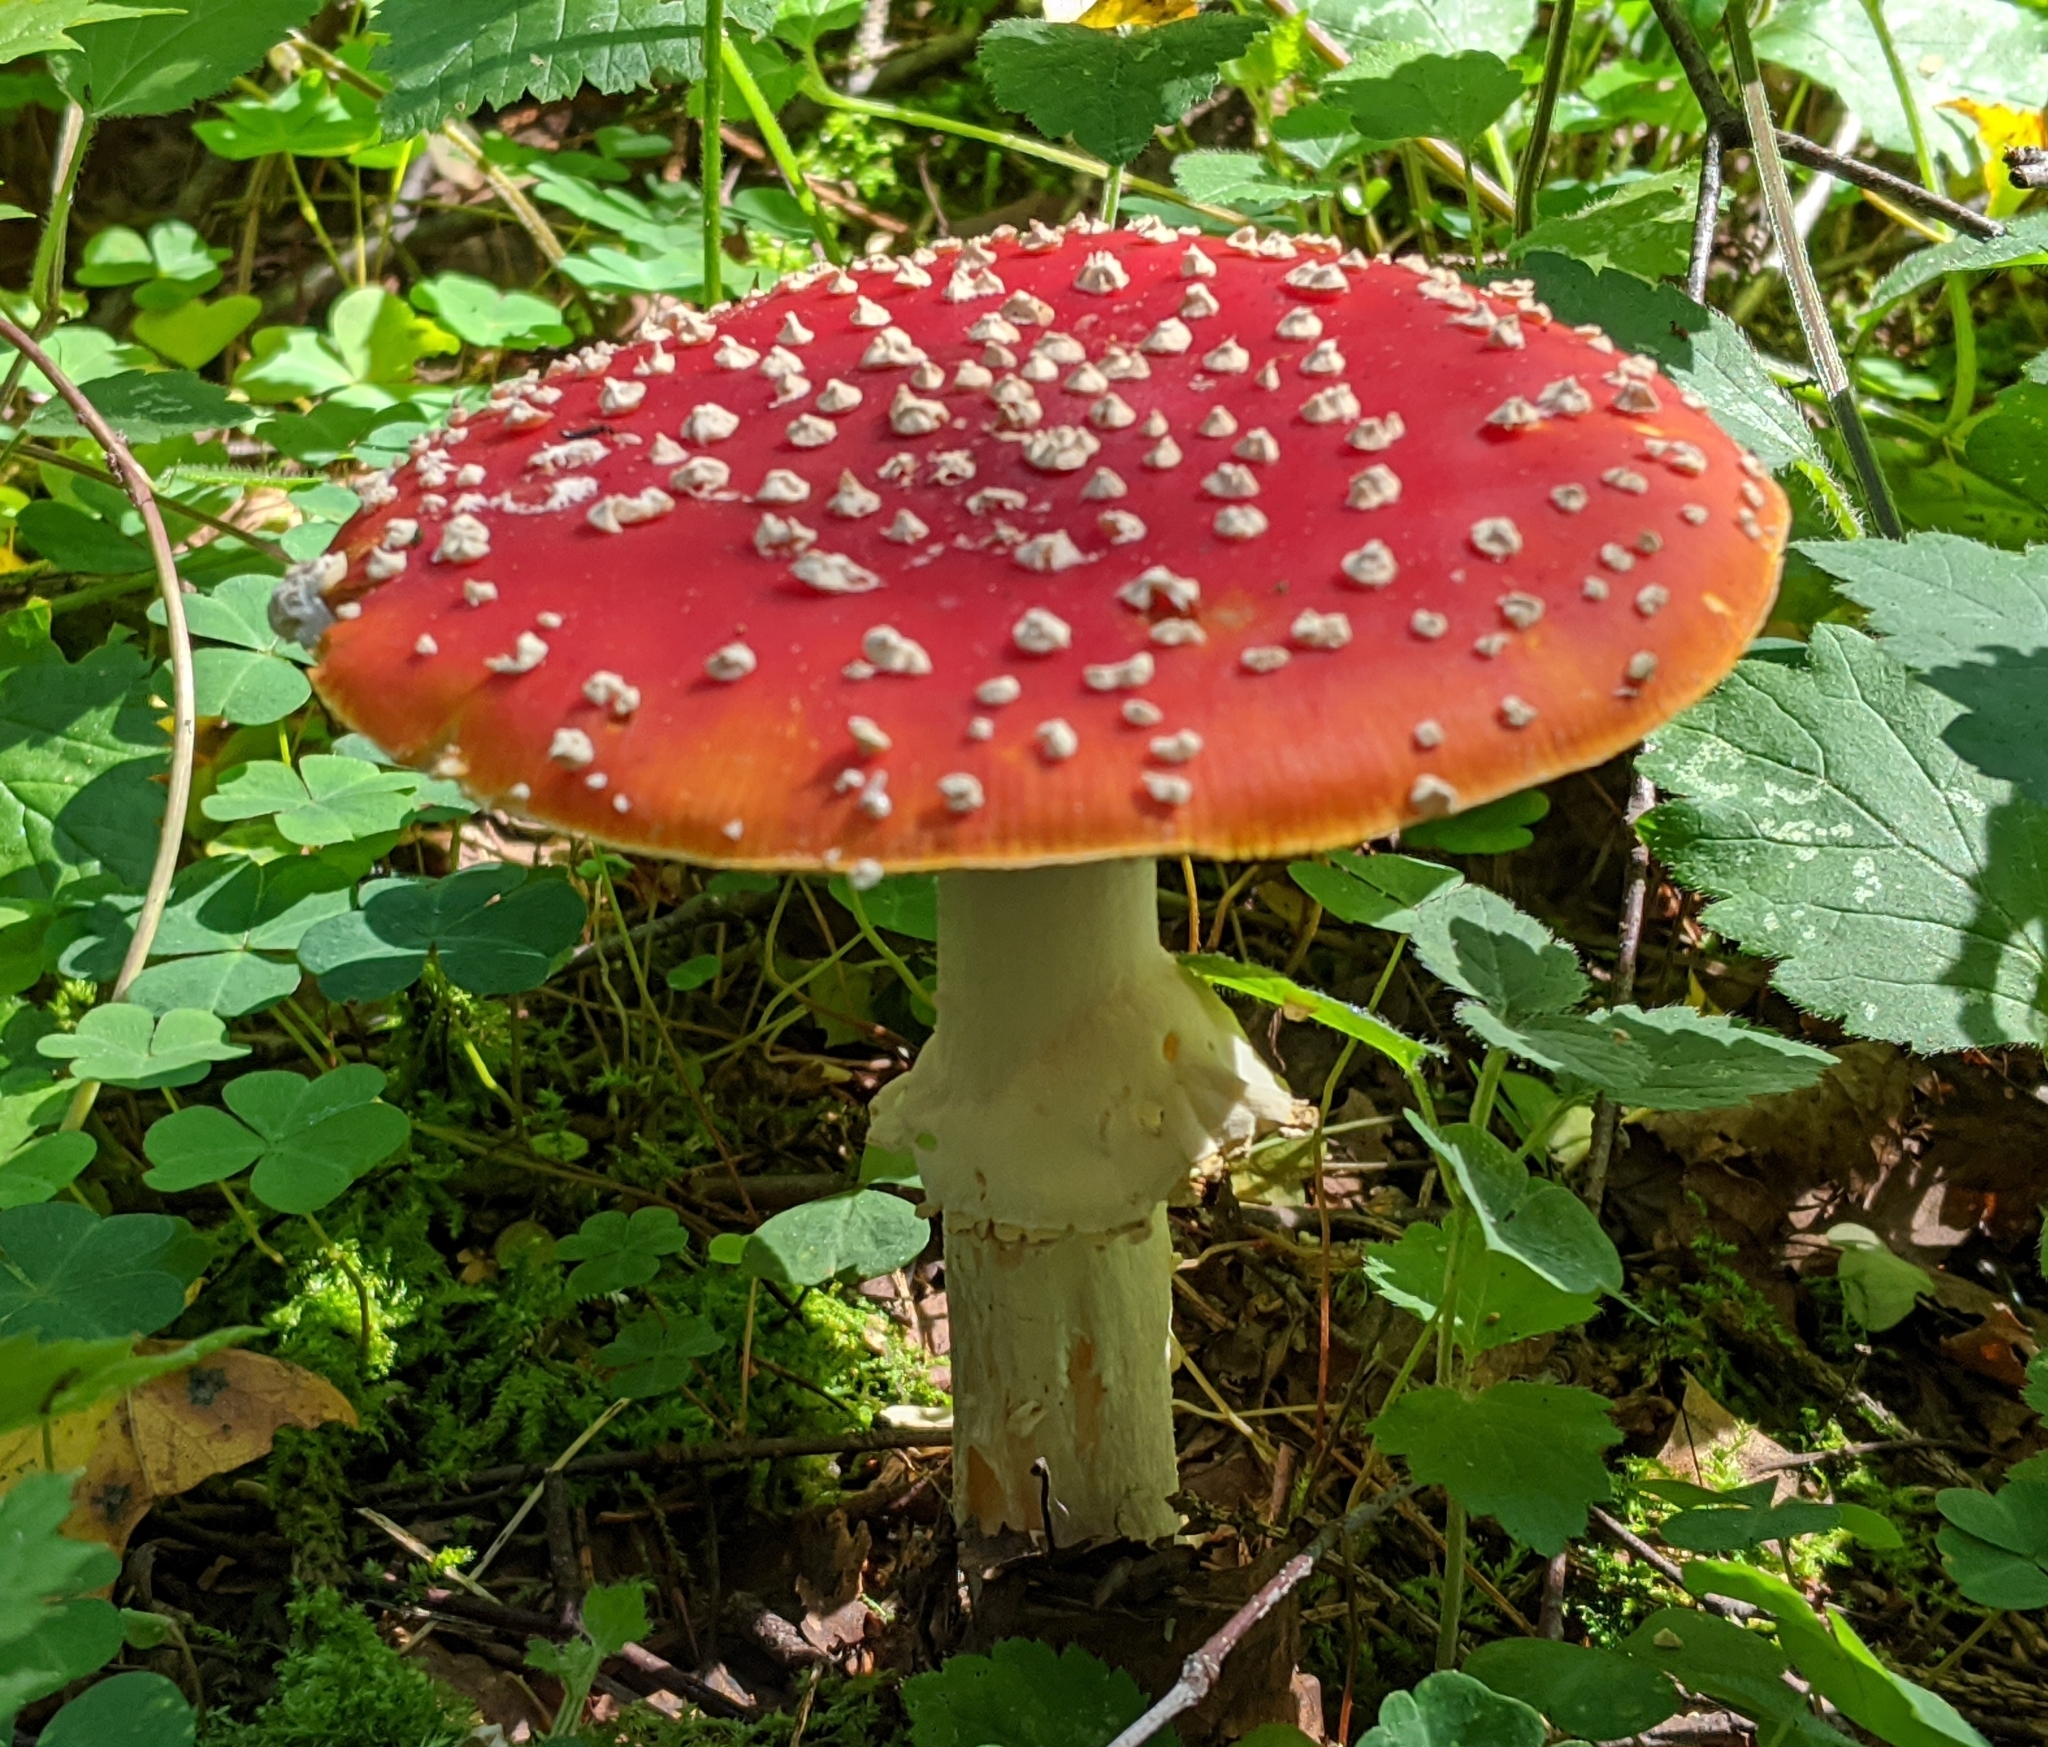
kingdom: Fungi
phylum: Basidiomycota
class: Agaricomycetes
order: Agaricales
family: Amanitaceae
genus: Amanita
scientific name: Amanita muscaria
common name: Fly agaric
